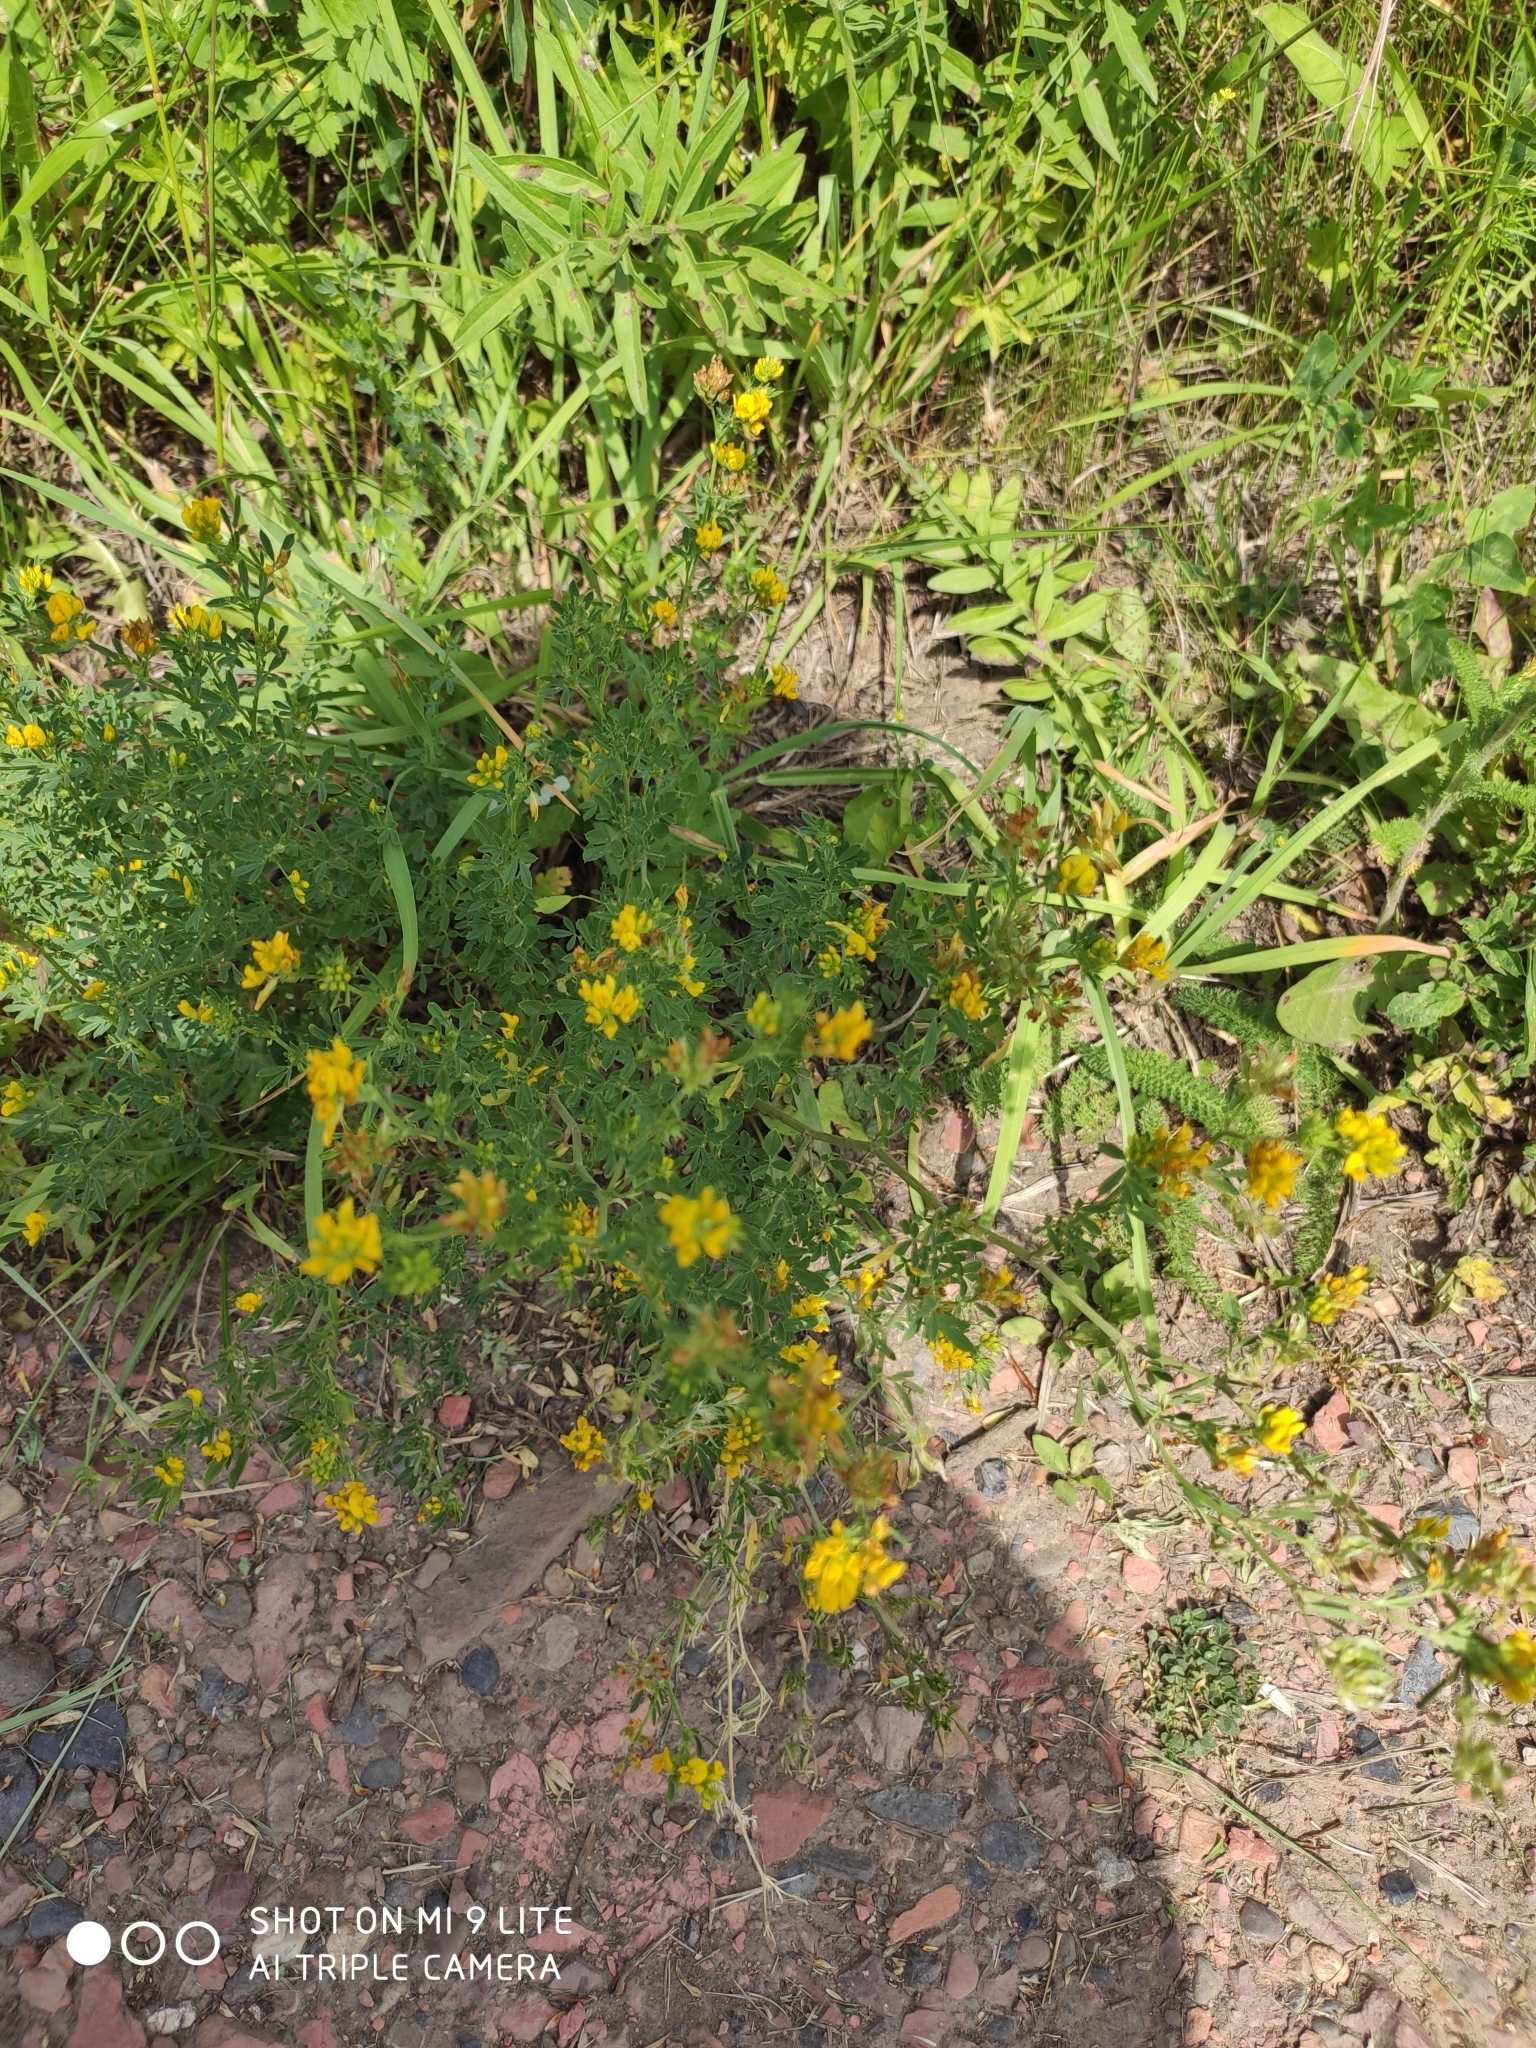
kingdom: Plantae
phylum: Tracheophyta
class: Magnoliopsida
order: Fabales
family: Fabaceae
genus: Medicago
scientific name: Medicago falcata
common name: Sickle medick
